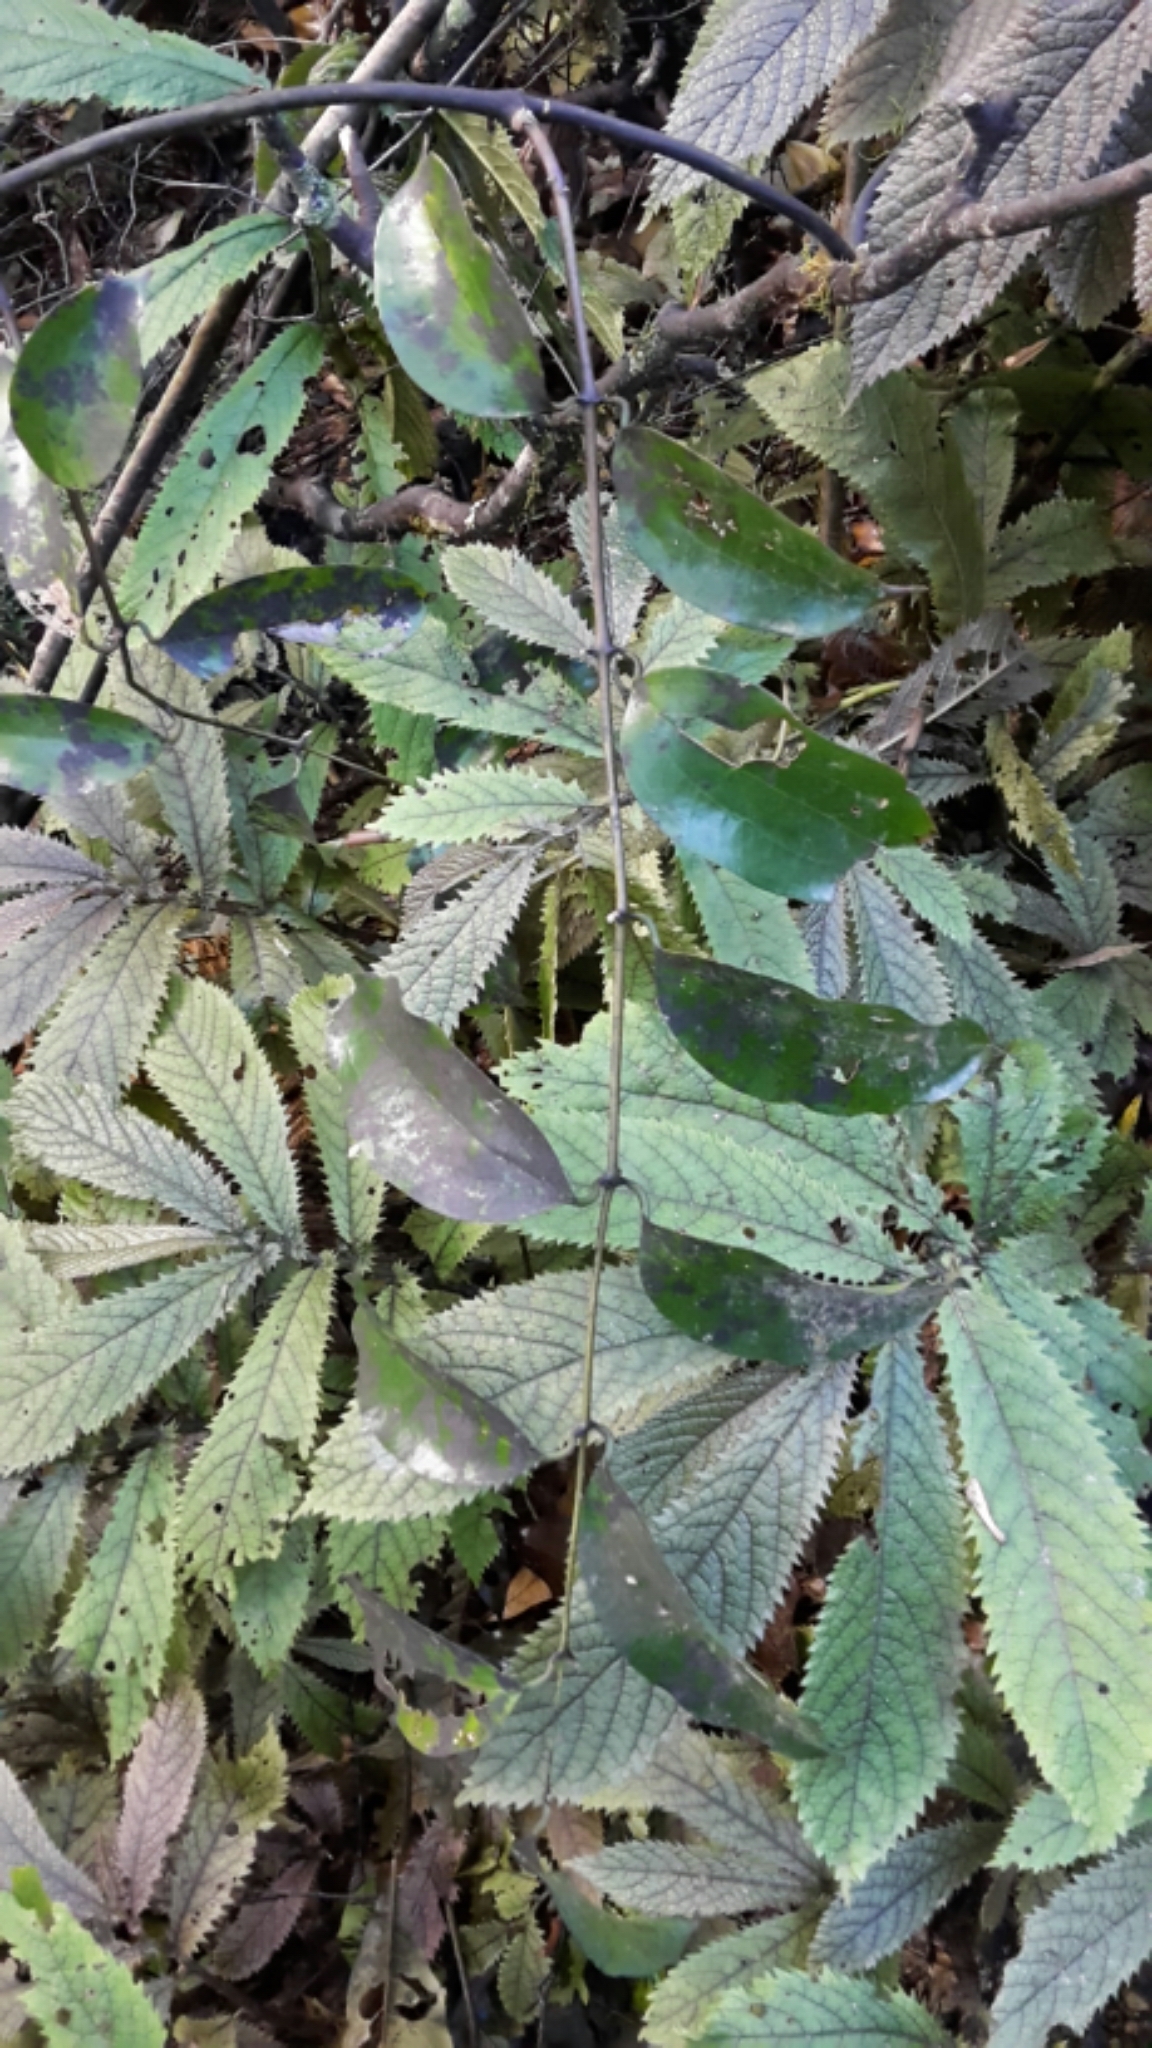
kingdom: Plantae
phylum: Tracheophyta
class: Liliopsida
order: Liliales
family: Ripogonaceae
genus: Ripogonum
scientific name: Ripogonum scandens
